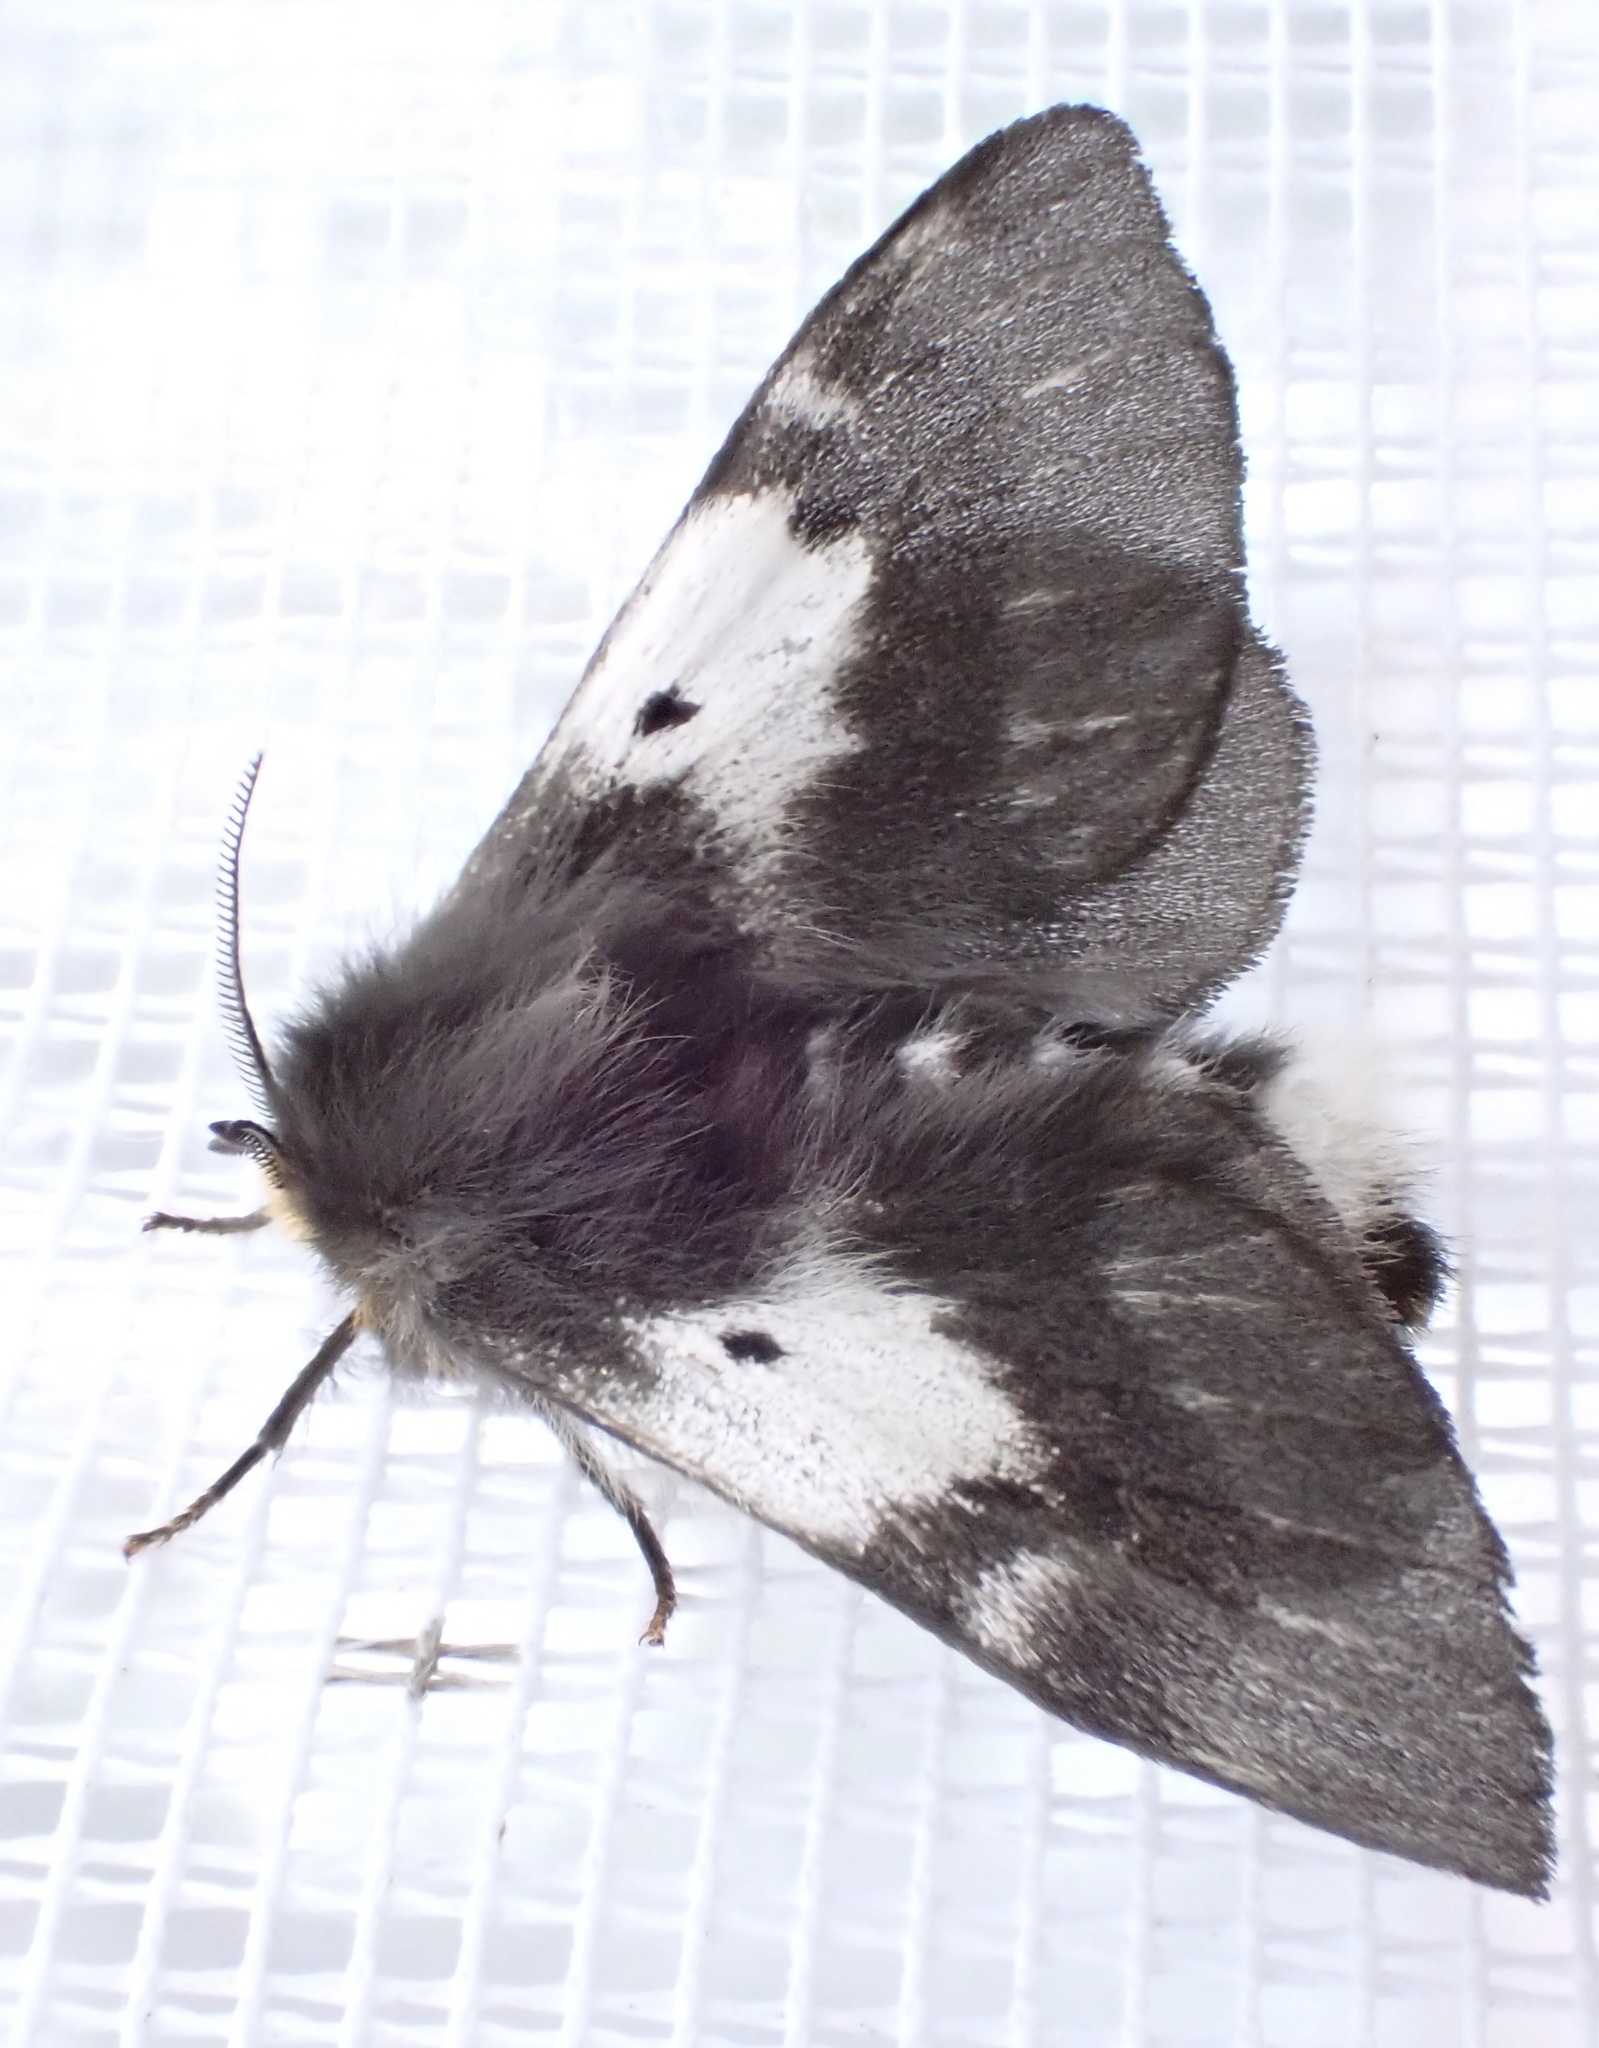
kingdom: Animalia
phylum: Arthropoda
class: Insecta
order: Lepidoptera
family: Anthelidae
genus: Nataxa
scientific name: Nataxa flavescens
